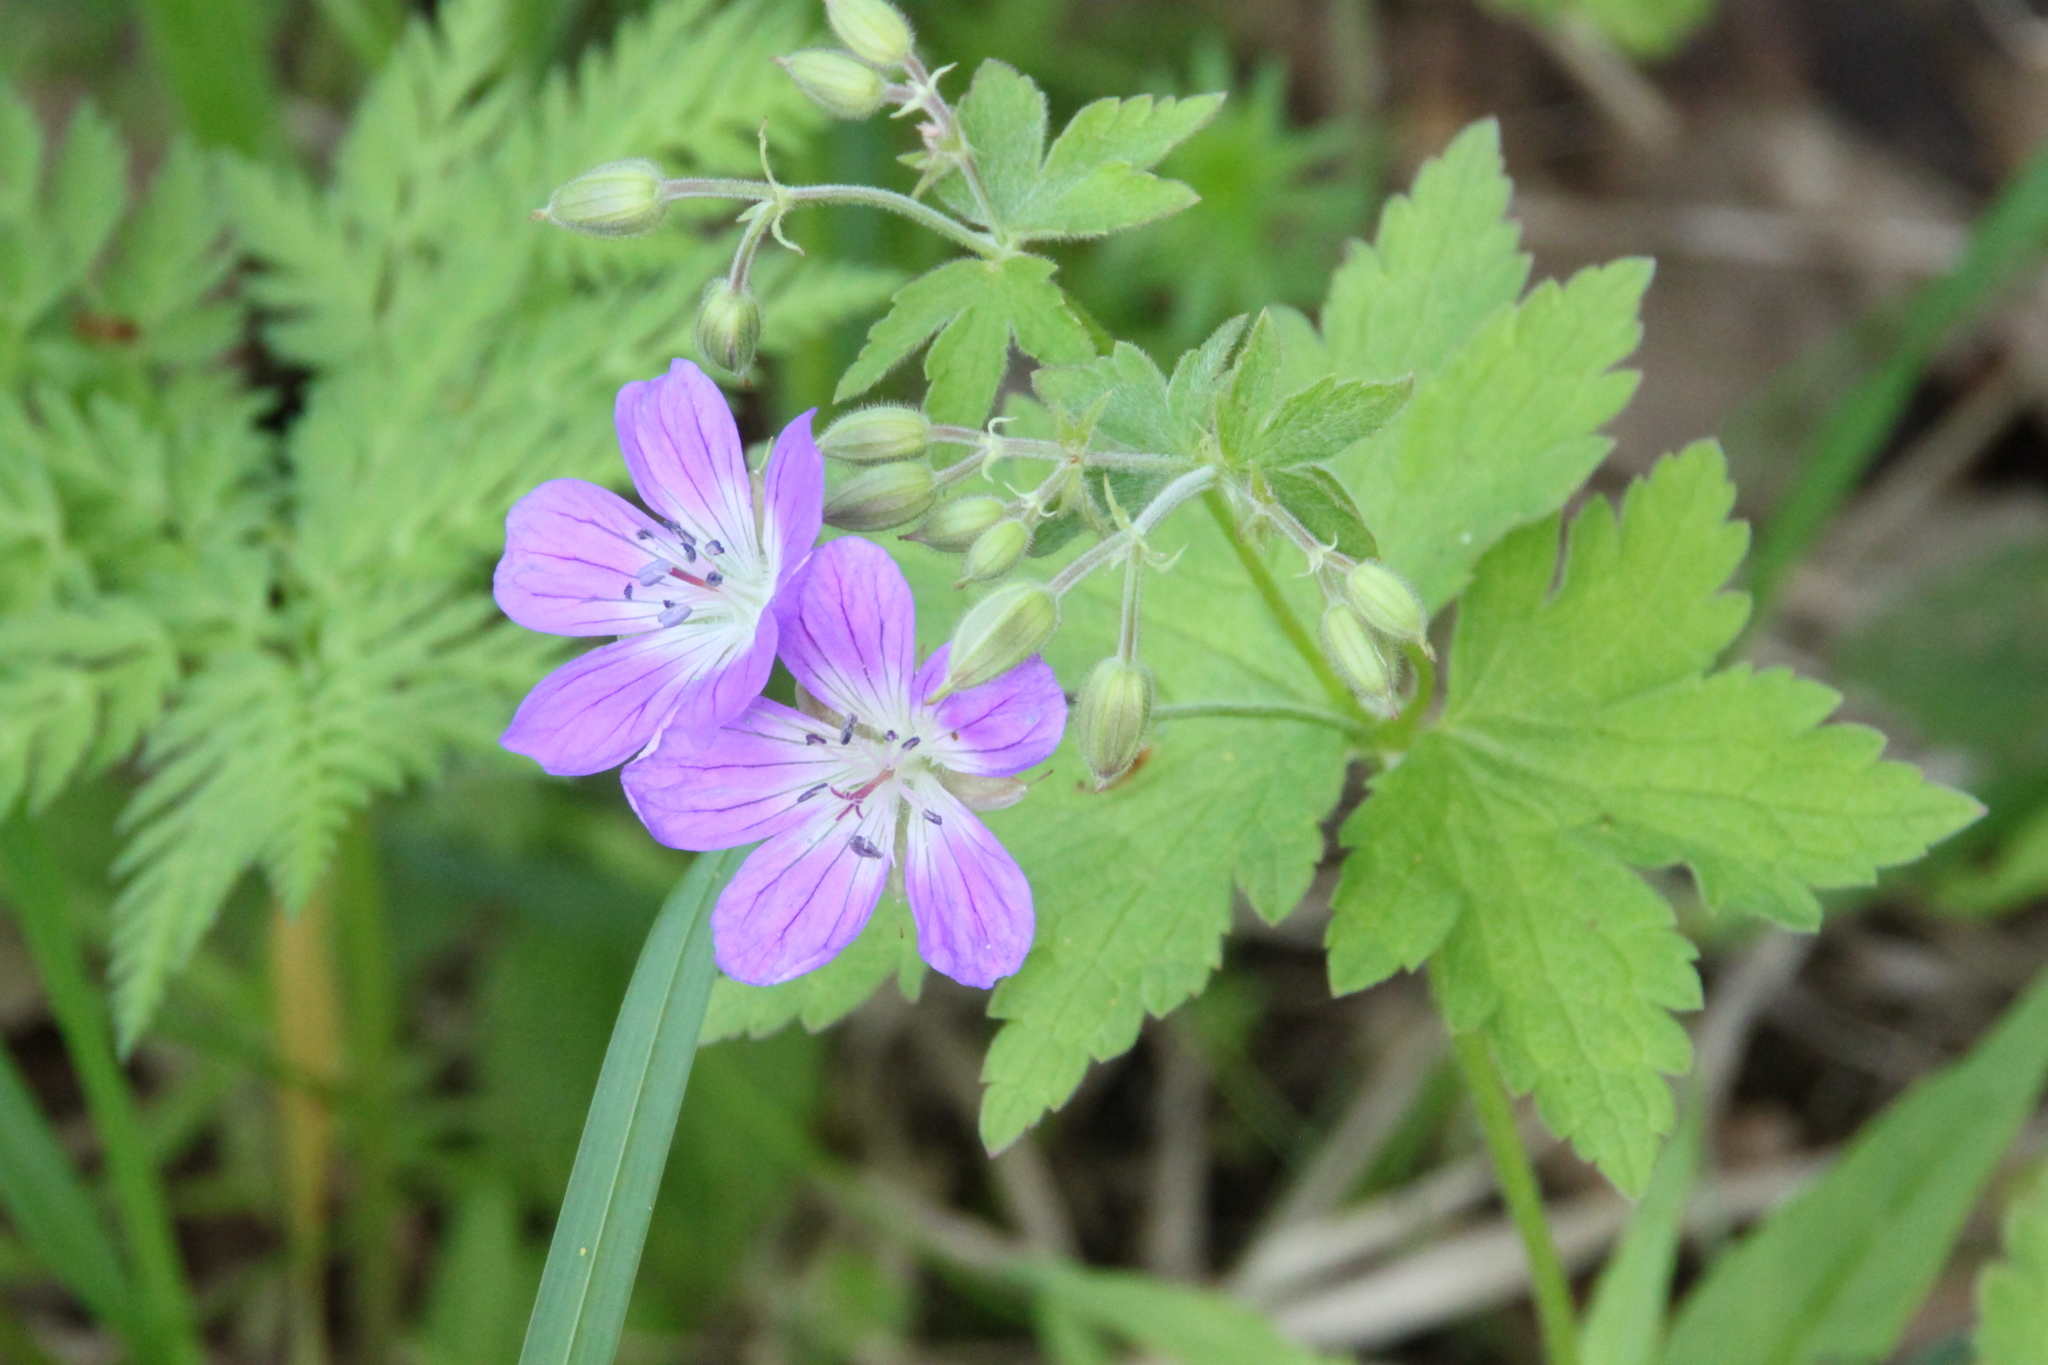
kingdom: Plantae
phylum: Tracheophyta
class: Magnoliopsida
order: Geraniales
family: Geraniaceae
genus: Geranium
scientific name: Geranium sylvaticum
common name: Wood crane's-bill
